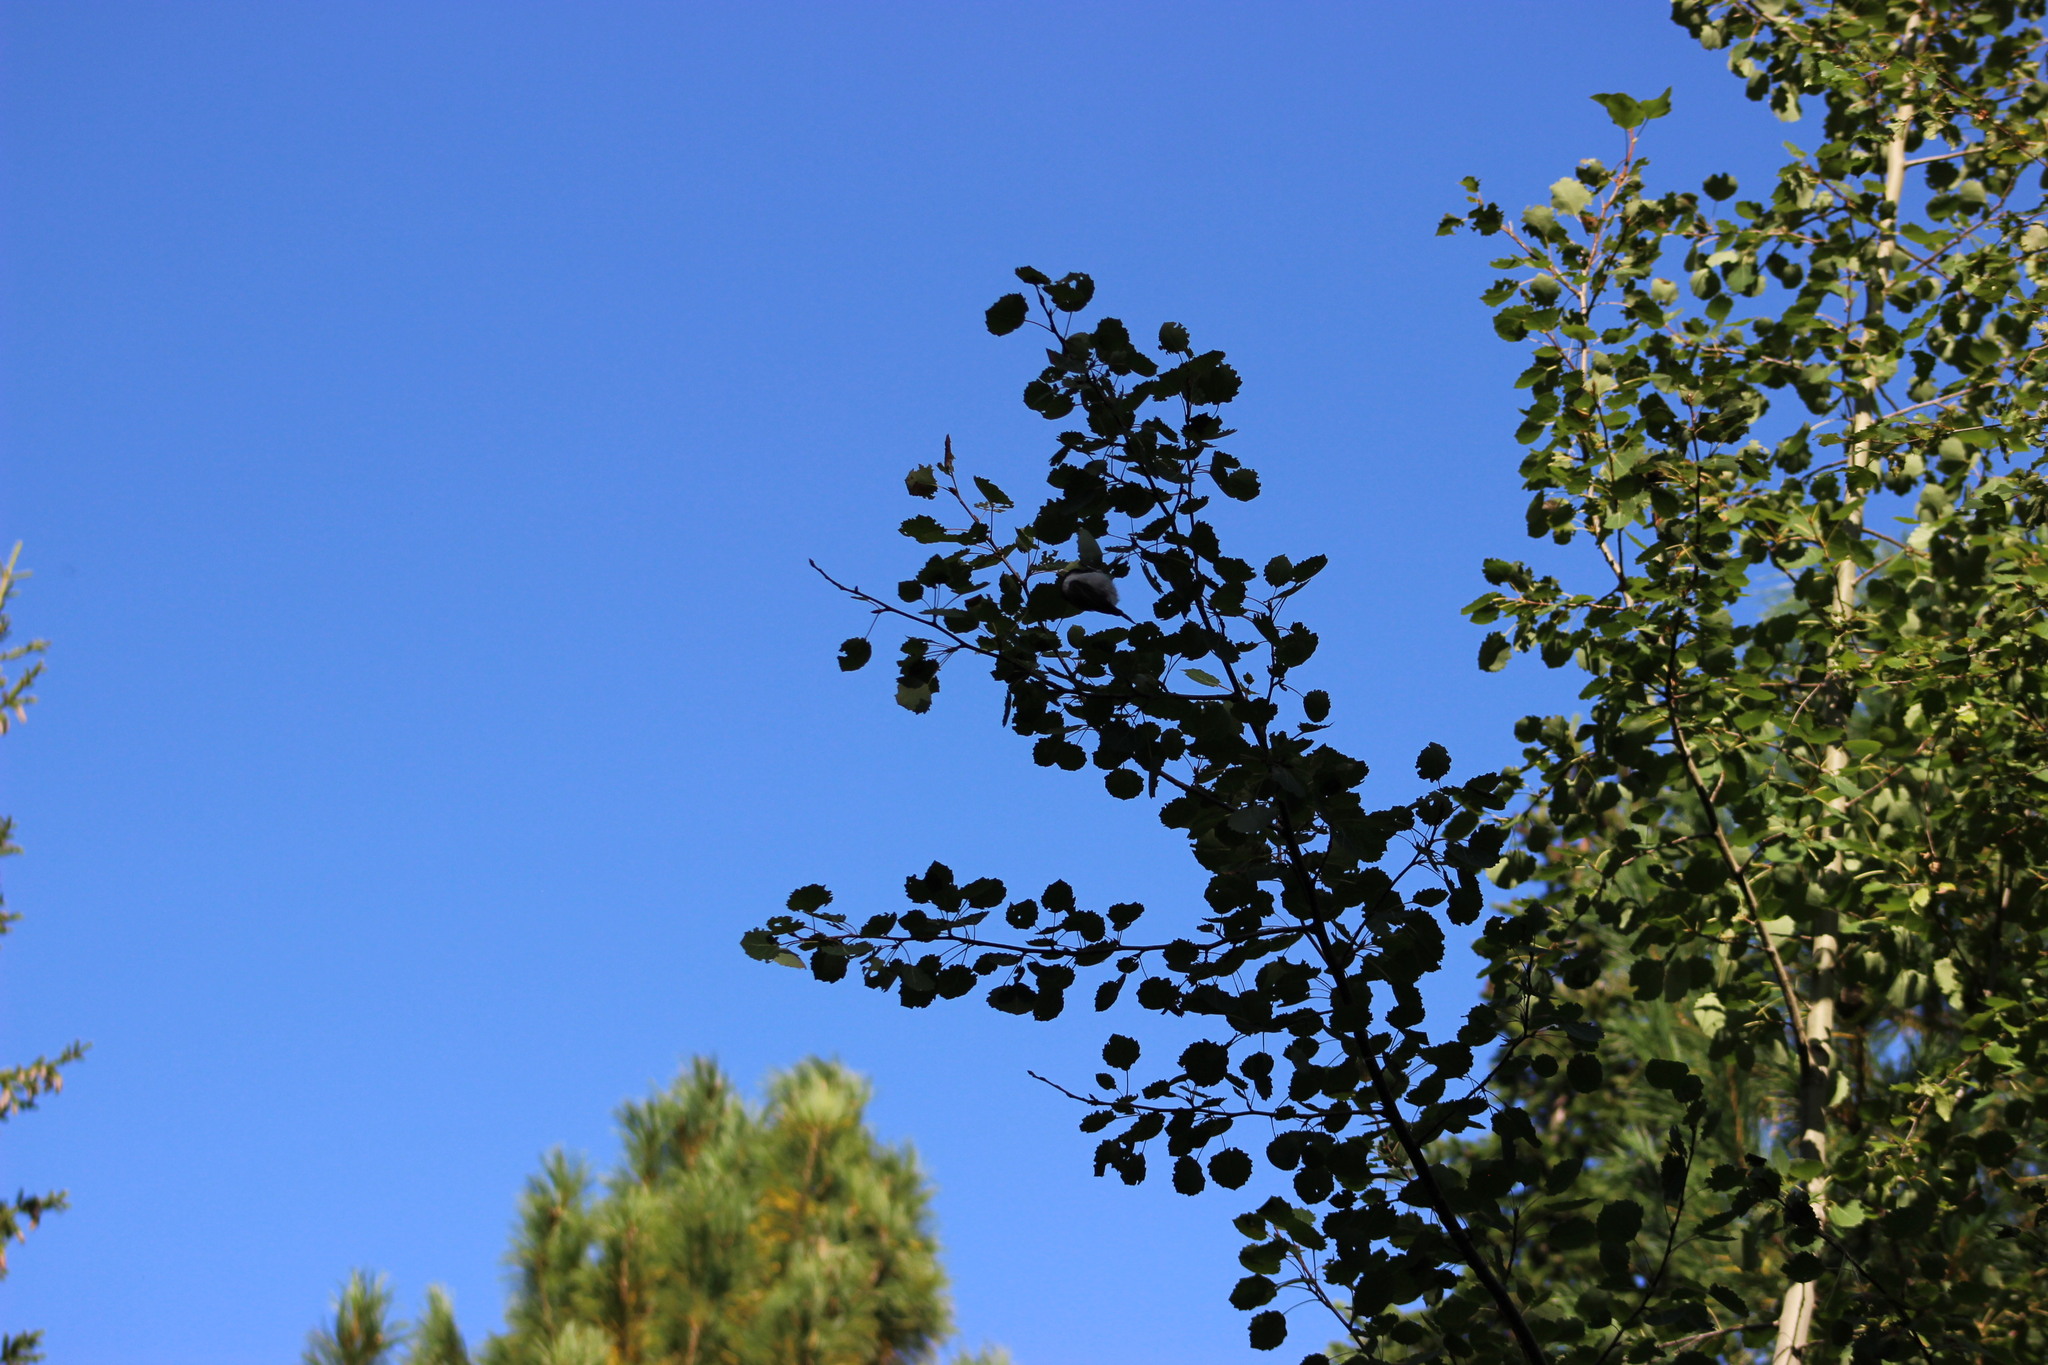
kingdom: Plantae
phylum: Tracheophyta
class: Magnoliopsida
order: Malpighiales
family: Salicaceae
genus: Populus
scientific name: Populus tremula
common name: European aspen
